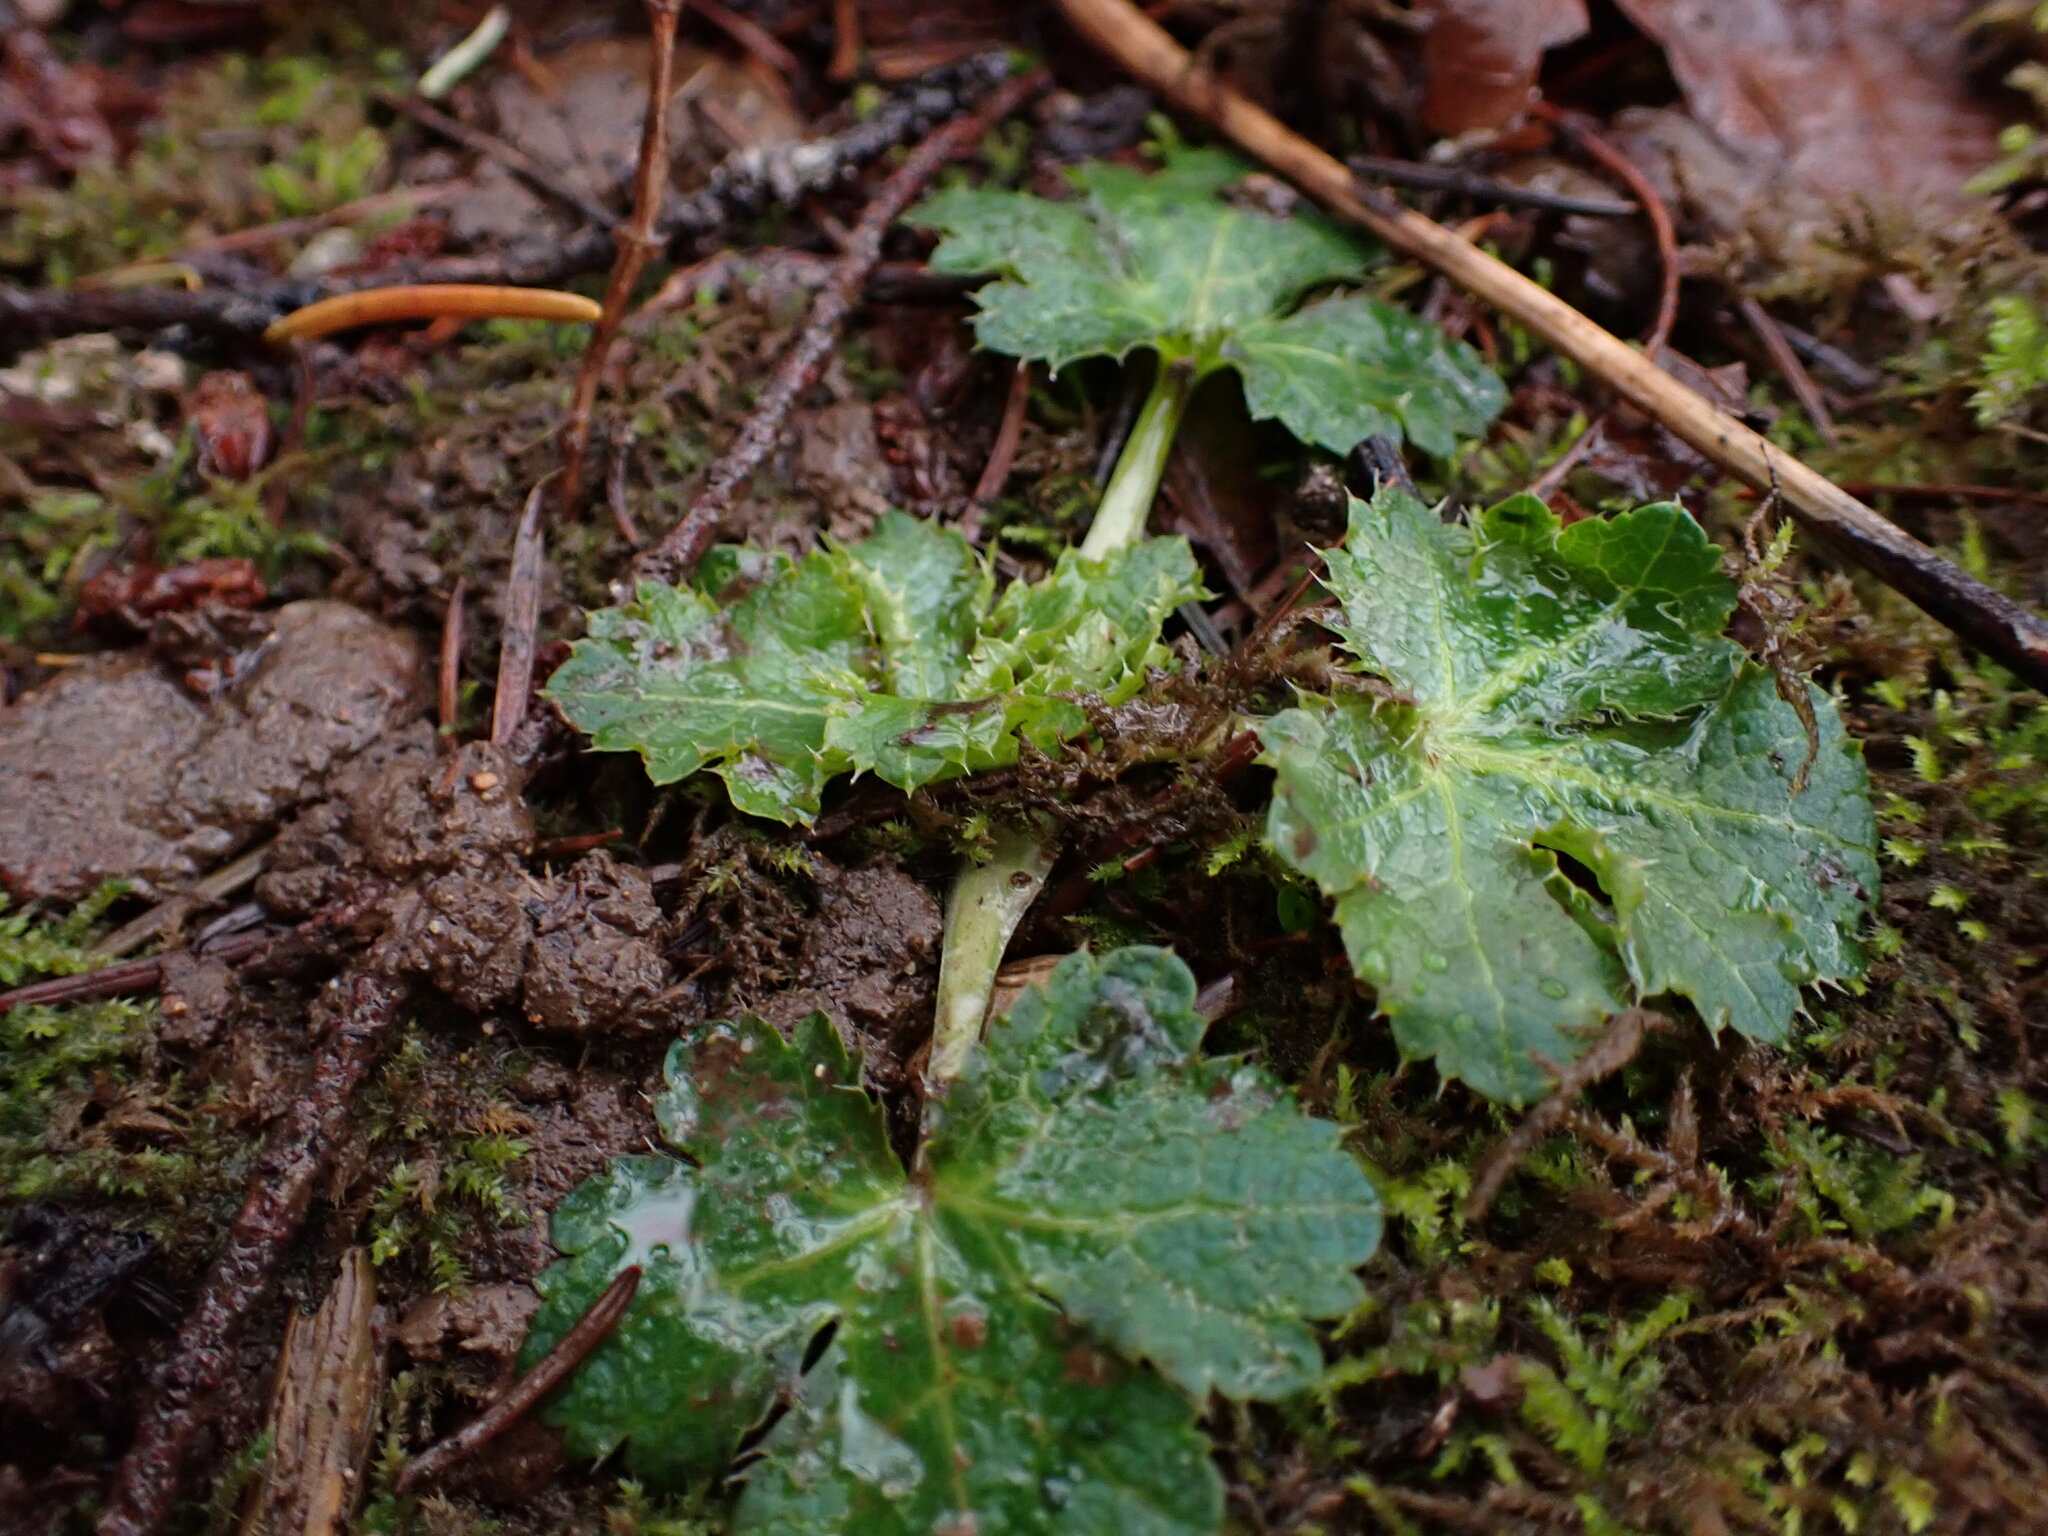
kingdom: Plantae
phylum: Tracheophyta
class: Magnoliopsida
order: Apiales
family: Apiaceae
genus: Sanicula
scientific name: Sanicula crassicaulis
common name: Western snakeroot
